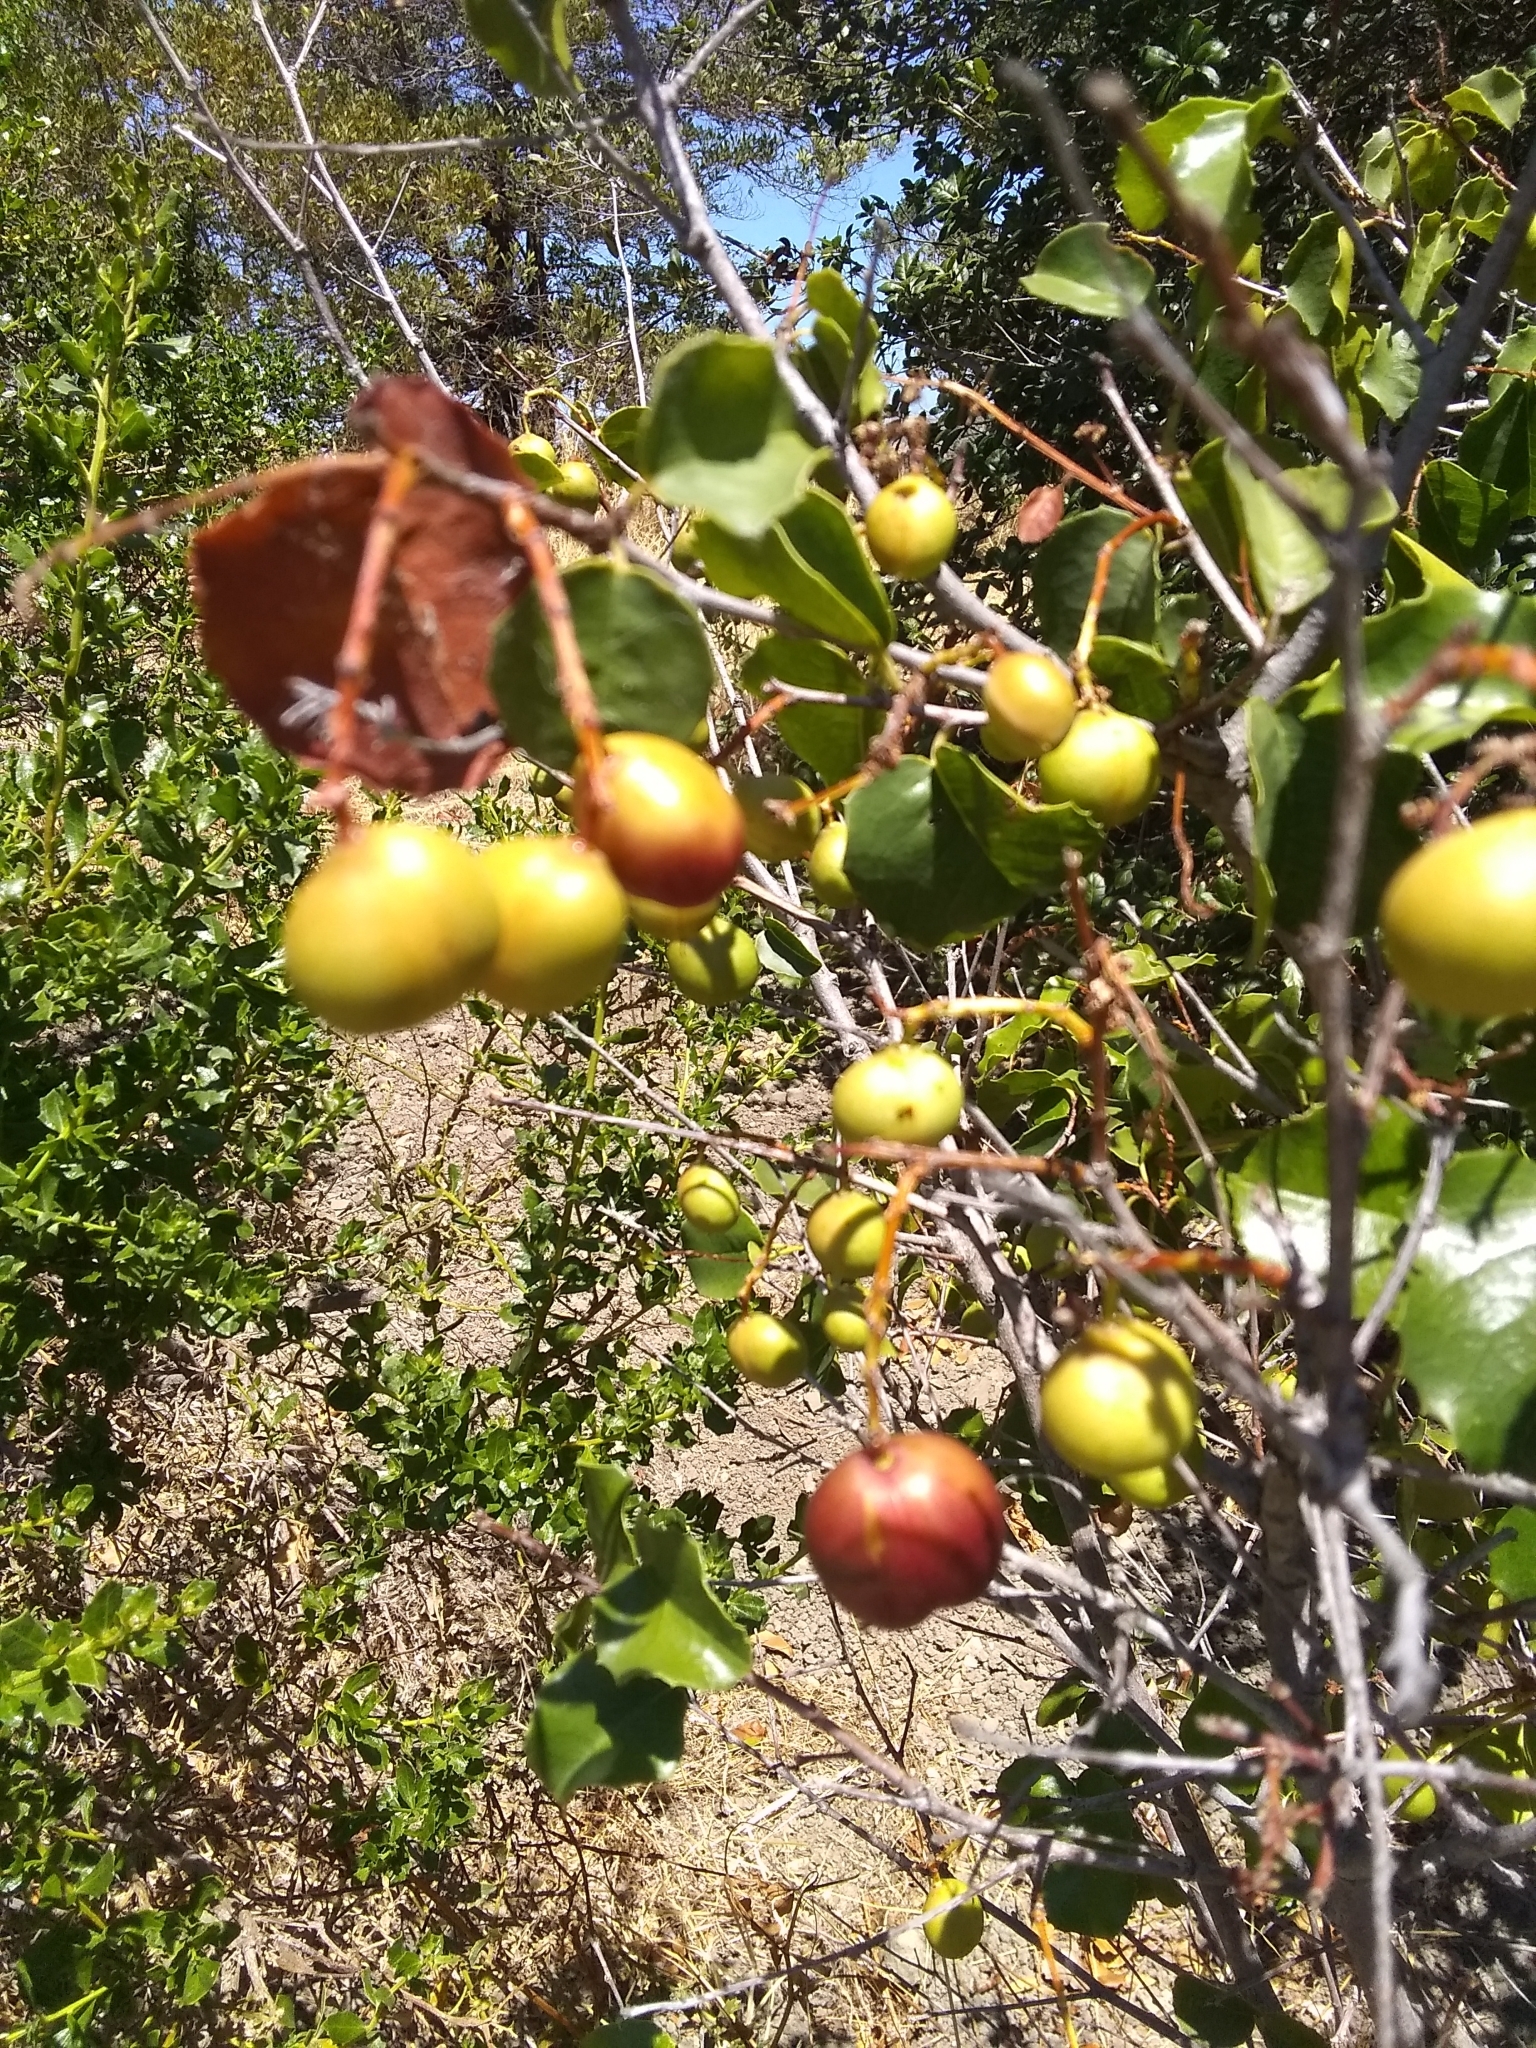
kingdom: Plantae
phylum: Tracheophyta
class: Magnoliopsida
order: Rosales
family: Rosaceae
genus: Prunus
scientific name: Prunus ilicifolia
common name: Hollyleaf cherry
